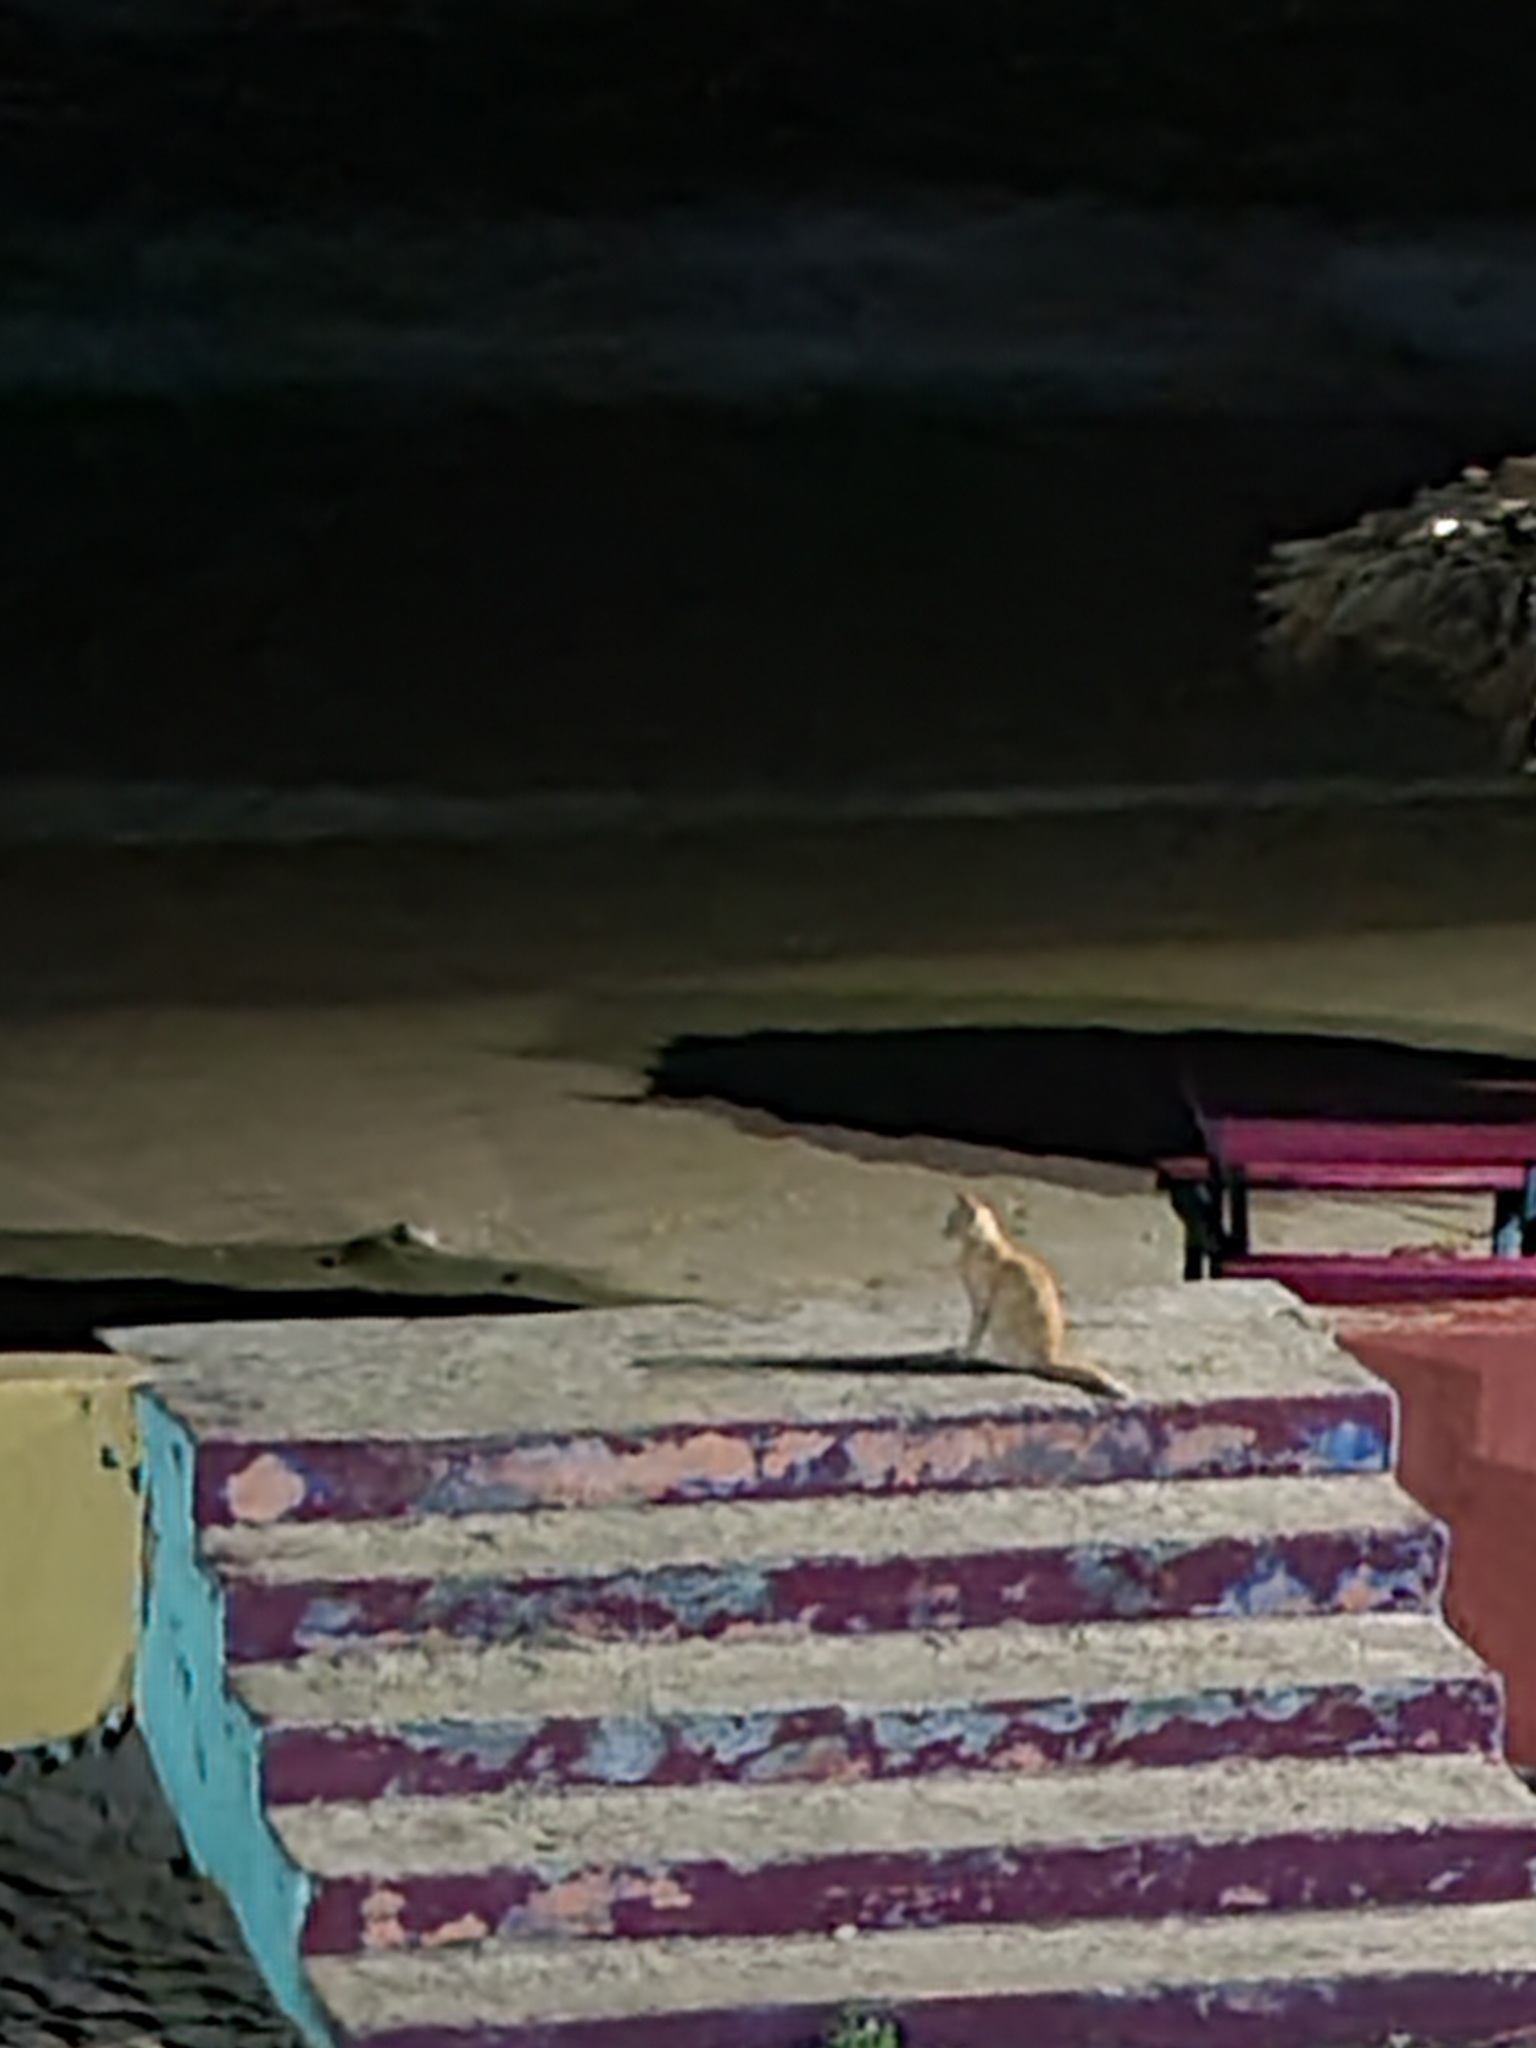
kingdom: Animalia
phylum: Chordata
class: Mammalia
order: Carnivora
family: Felidae
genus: Felis
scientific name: Felis catus
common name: Domestic cat
